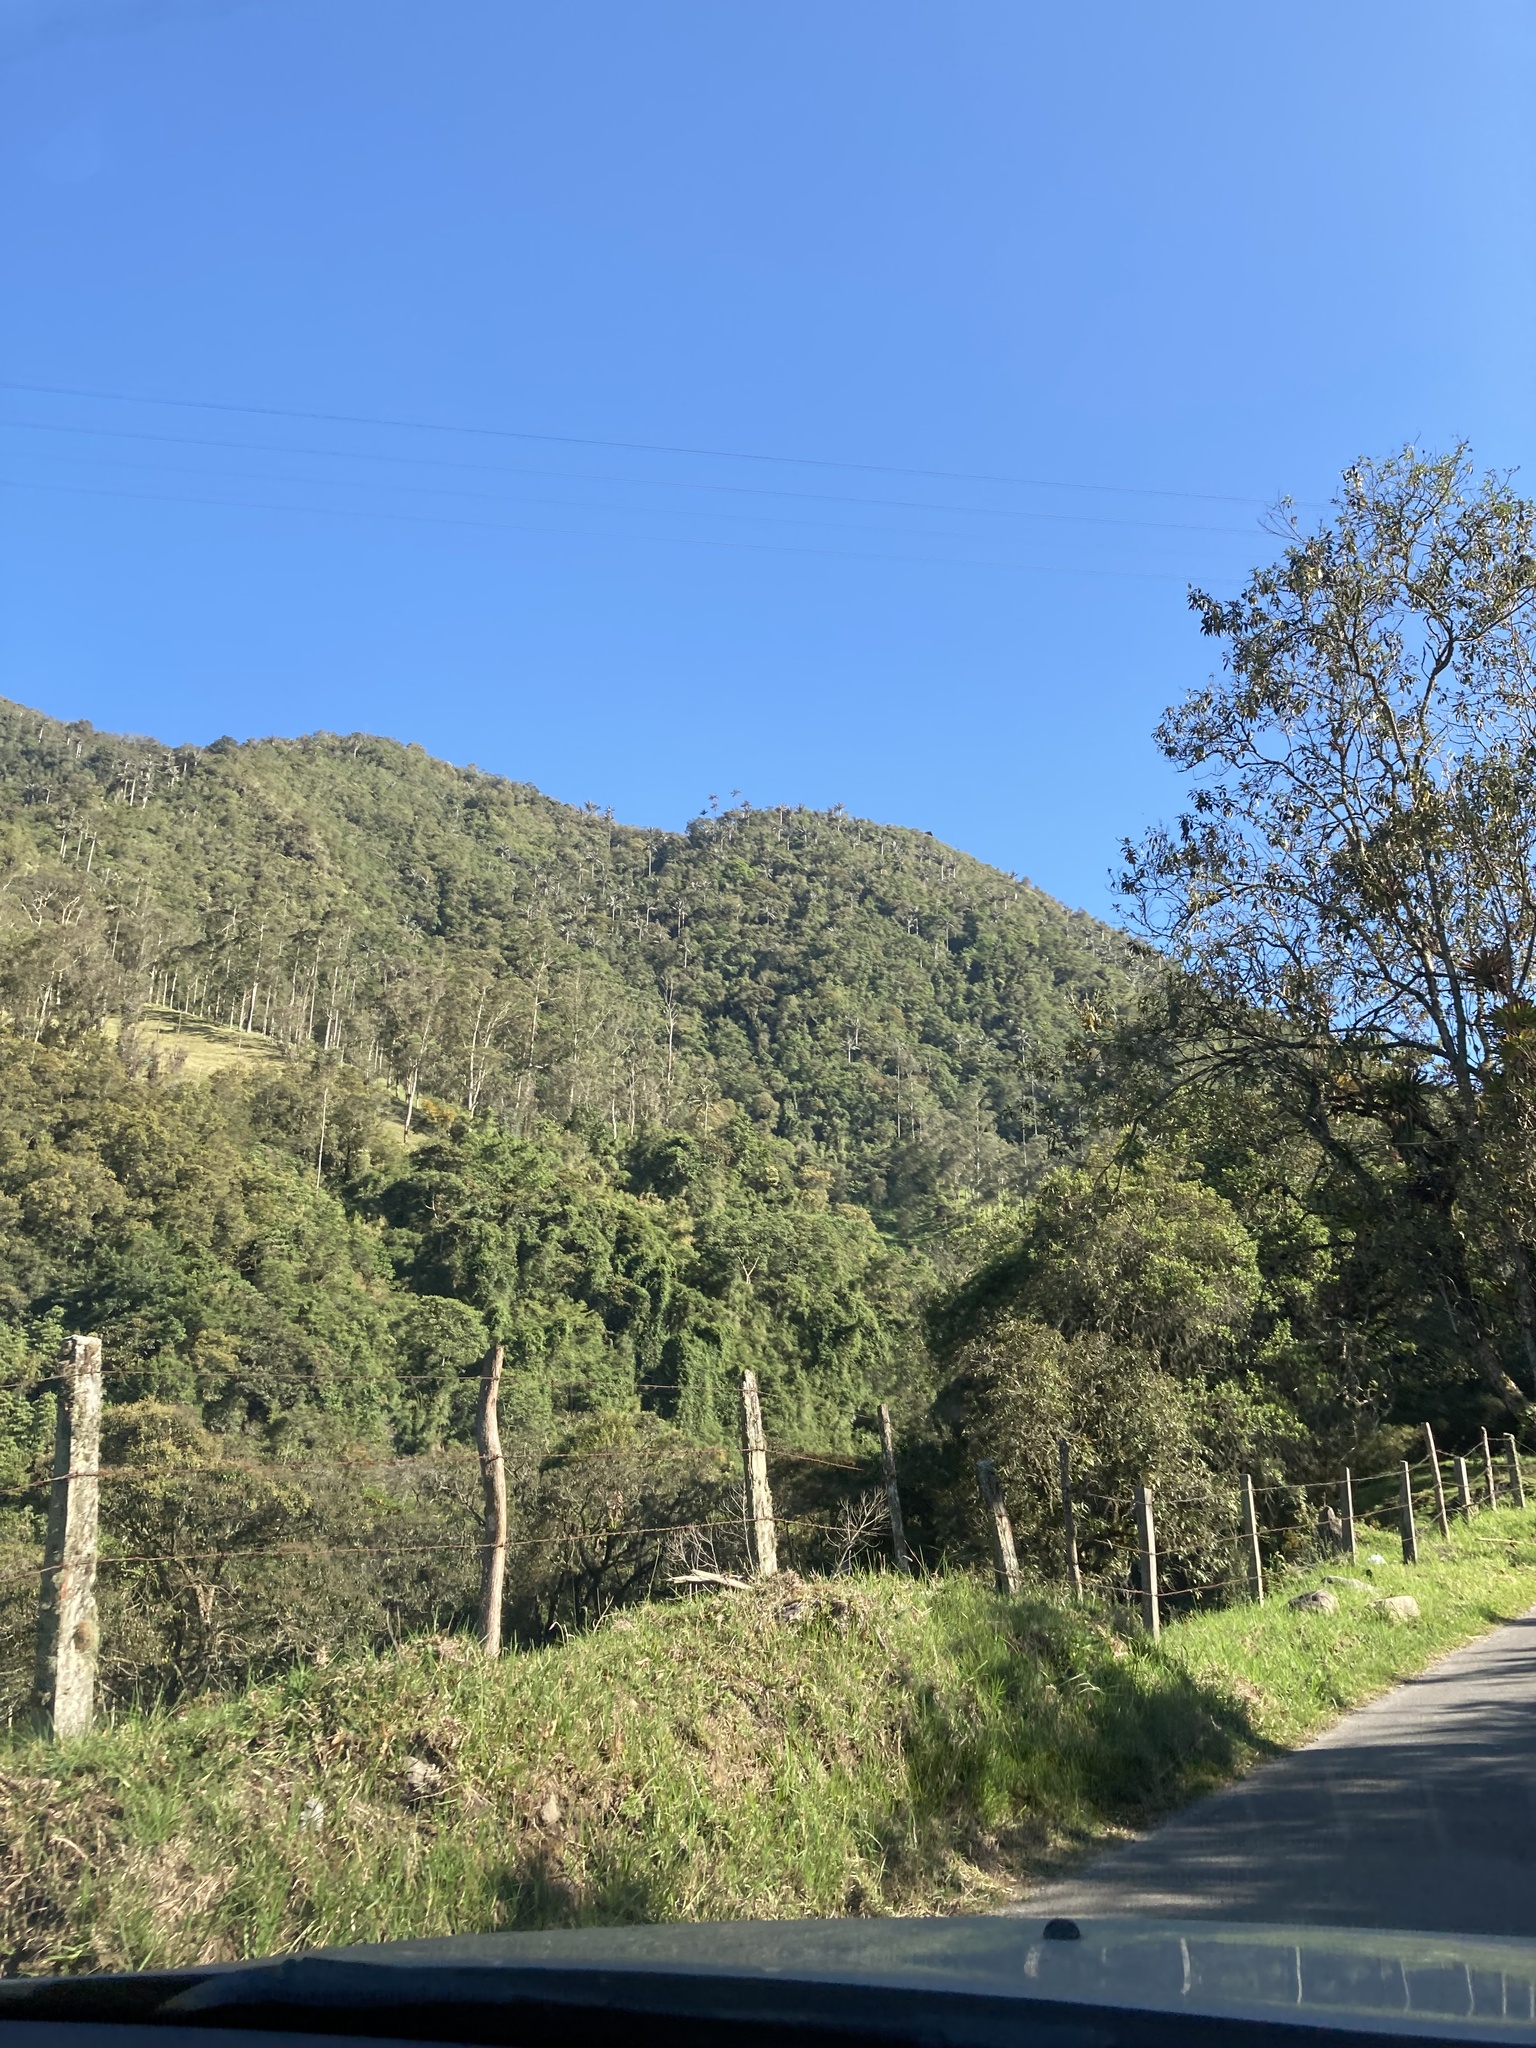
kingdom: Plantae
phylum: Tracheophyta
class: Liliopsida
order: Arecales
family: Arecaceae
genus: Ceroxylon
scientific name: Ceroxylon quindiuense
